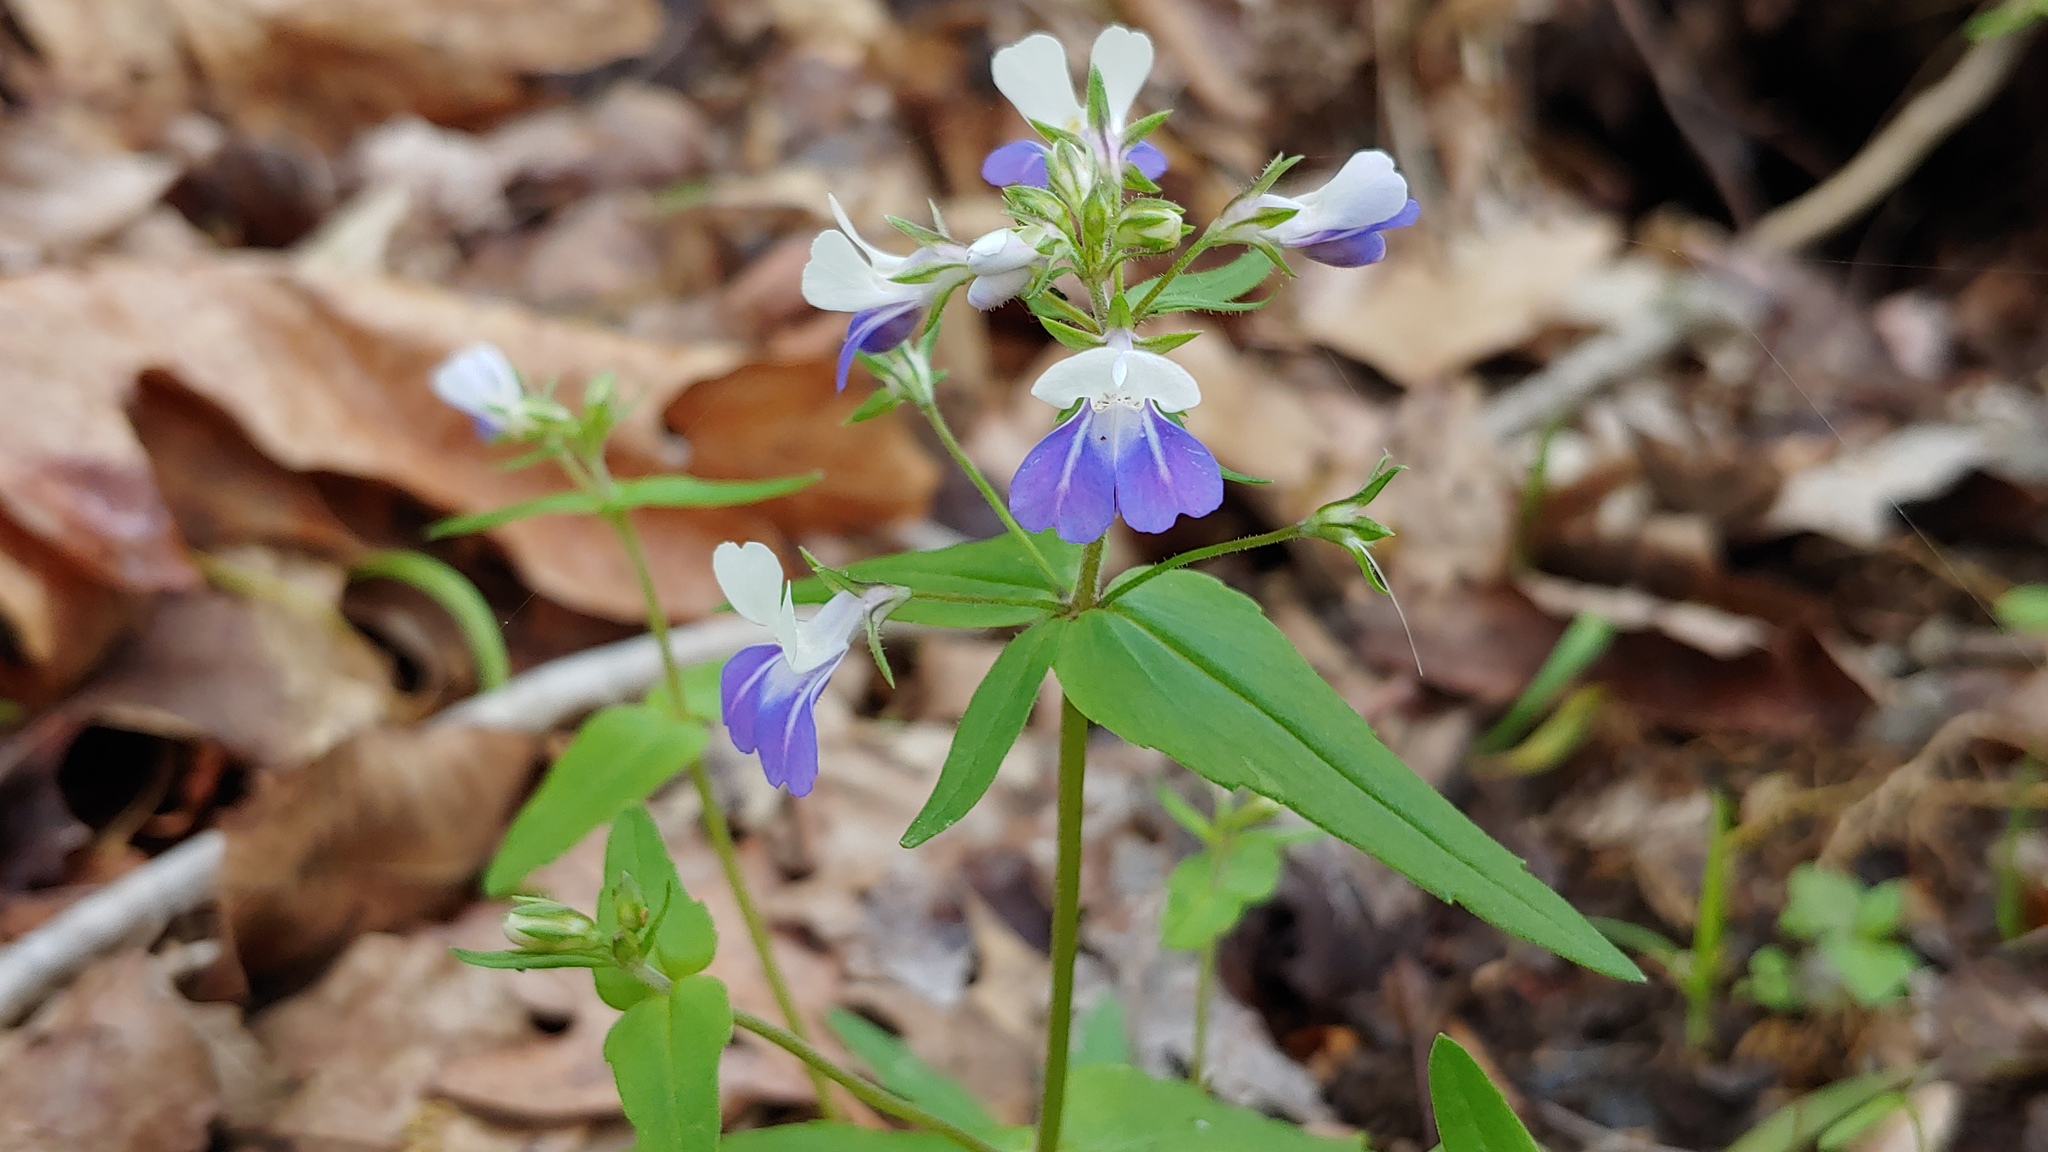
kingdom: Plantae
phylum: Tracheophyta
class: Magnoliopsida
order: Lamiales
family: Plantaginaceae
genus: Collinsia
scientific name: Collinsia verna
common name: Broad-leaved collinsia
